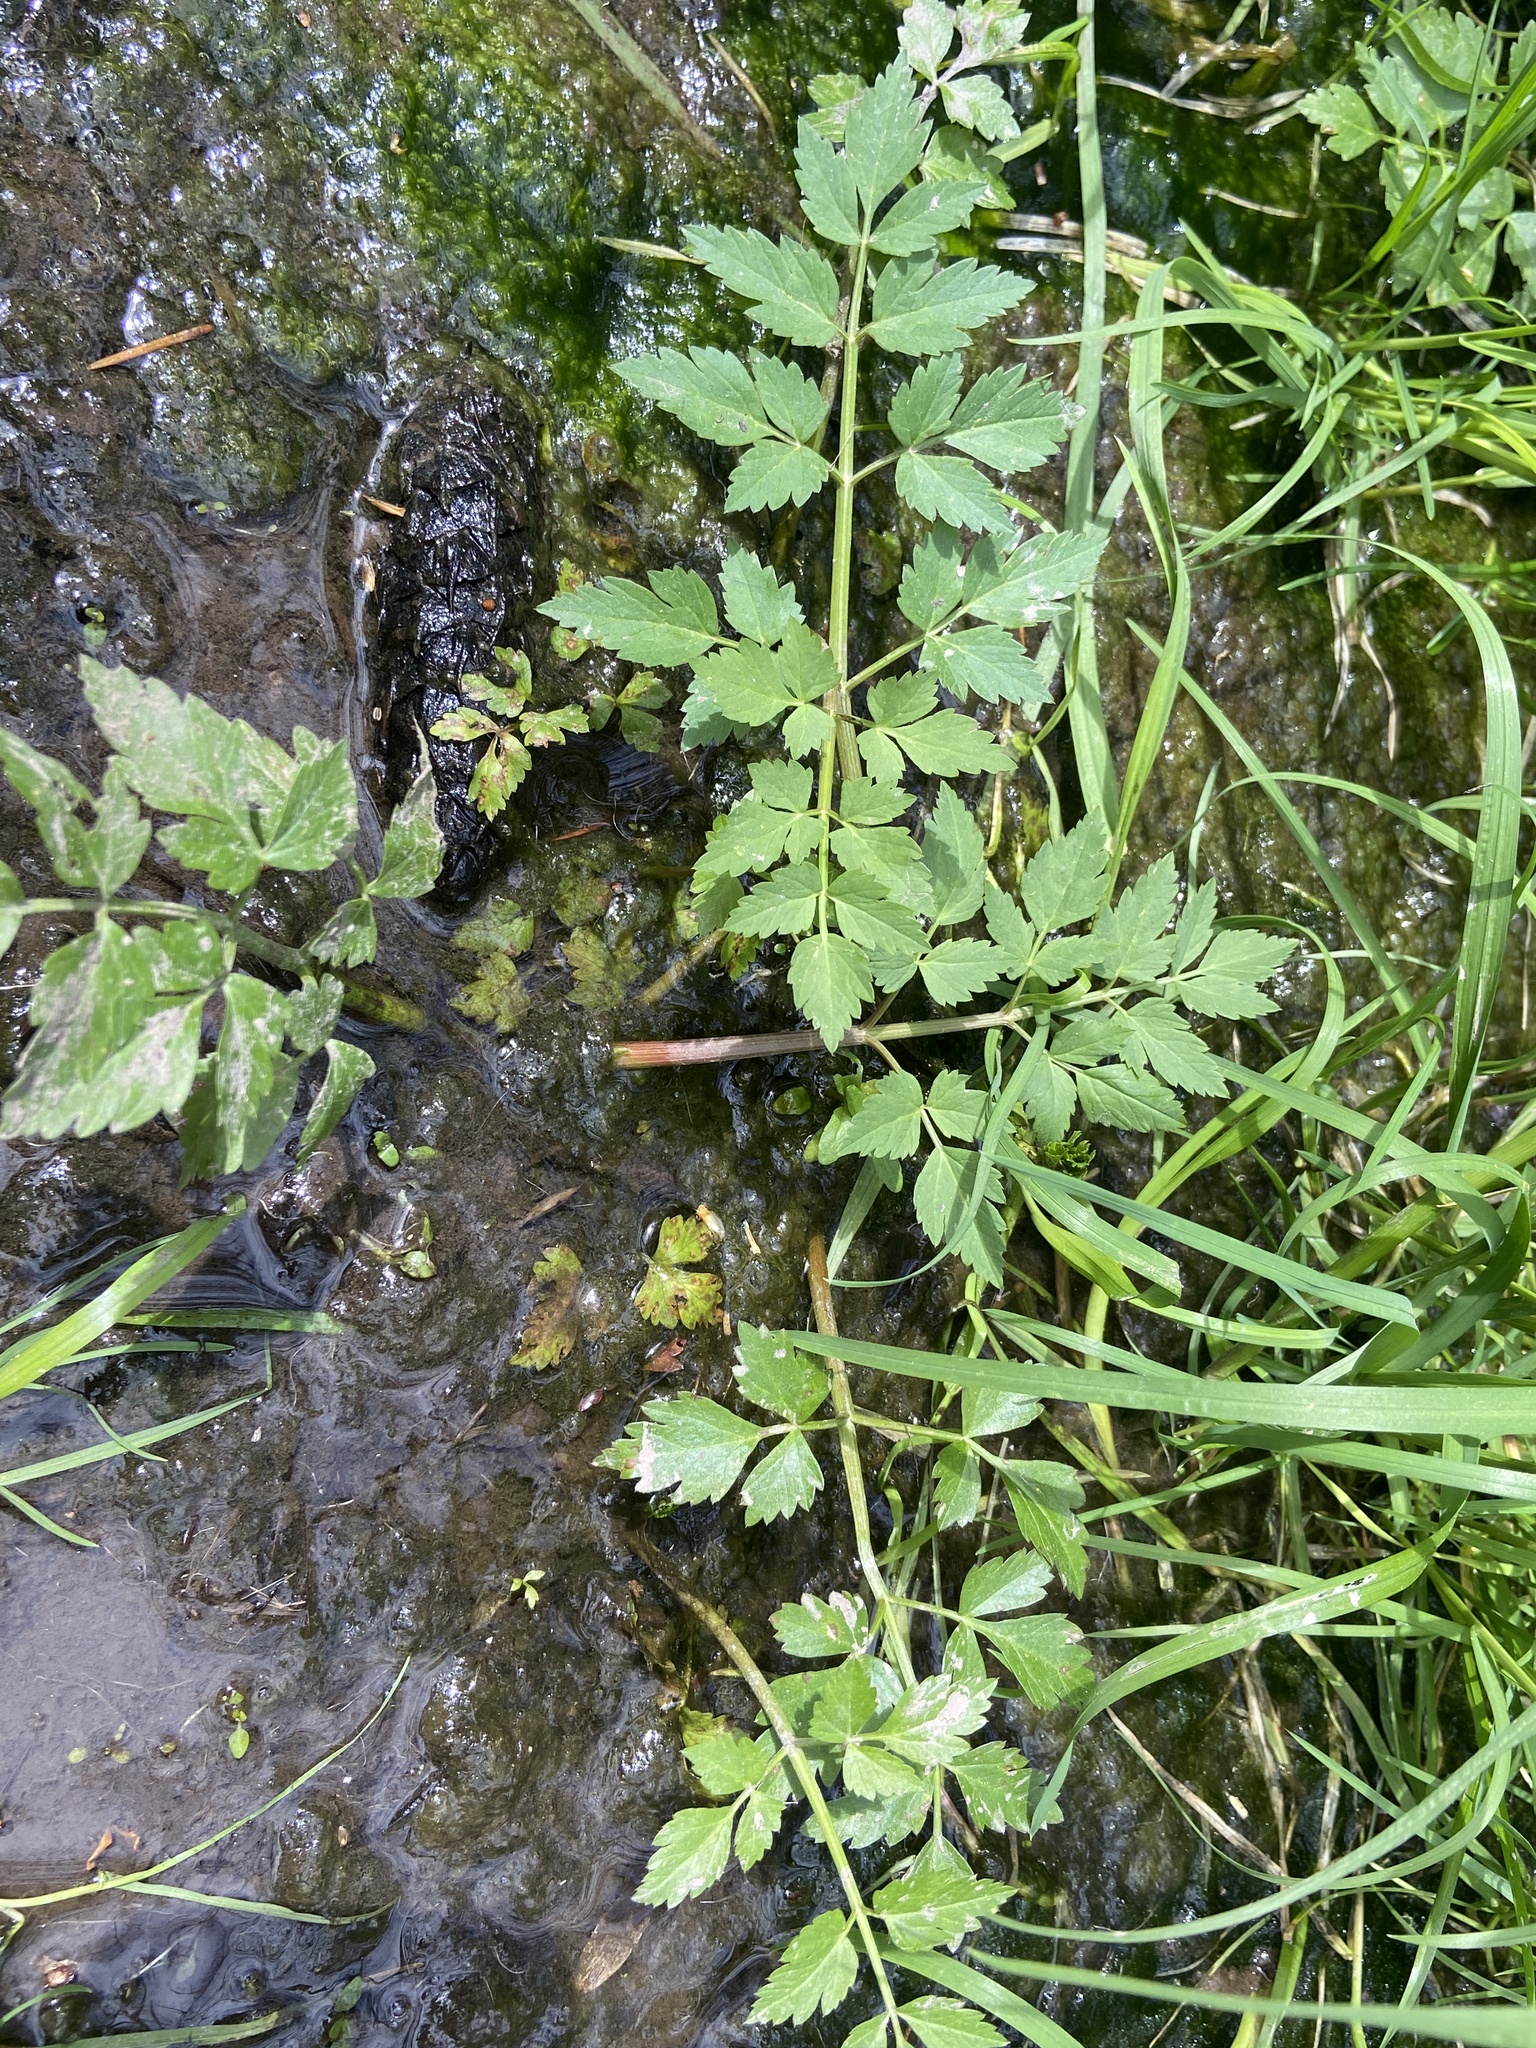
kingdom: Plantae
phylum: Tracheophyta
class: Magnoliopsida
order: Apiales
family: Apiaceae
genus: Oenanthe
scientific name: Oenanthe sarmentosa
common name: American water-parsley
